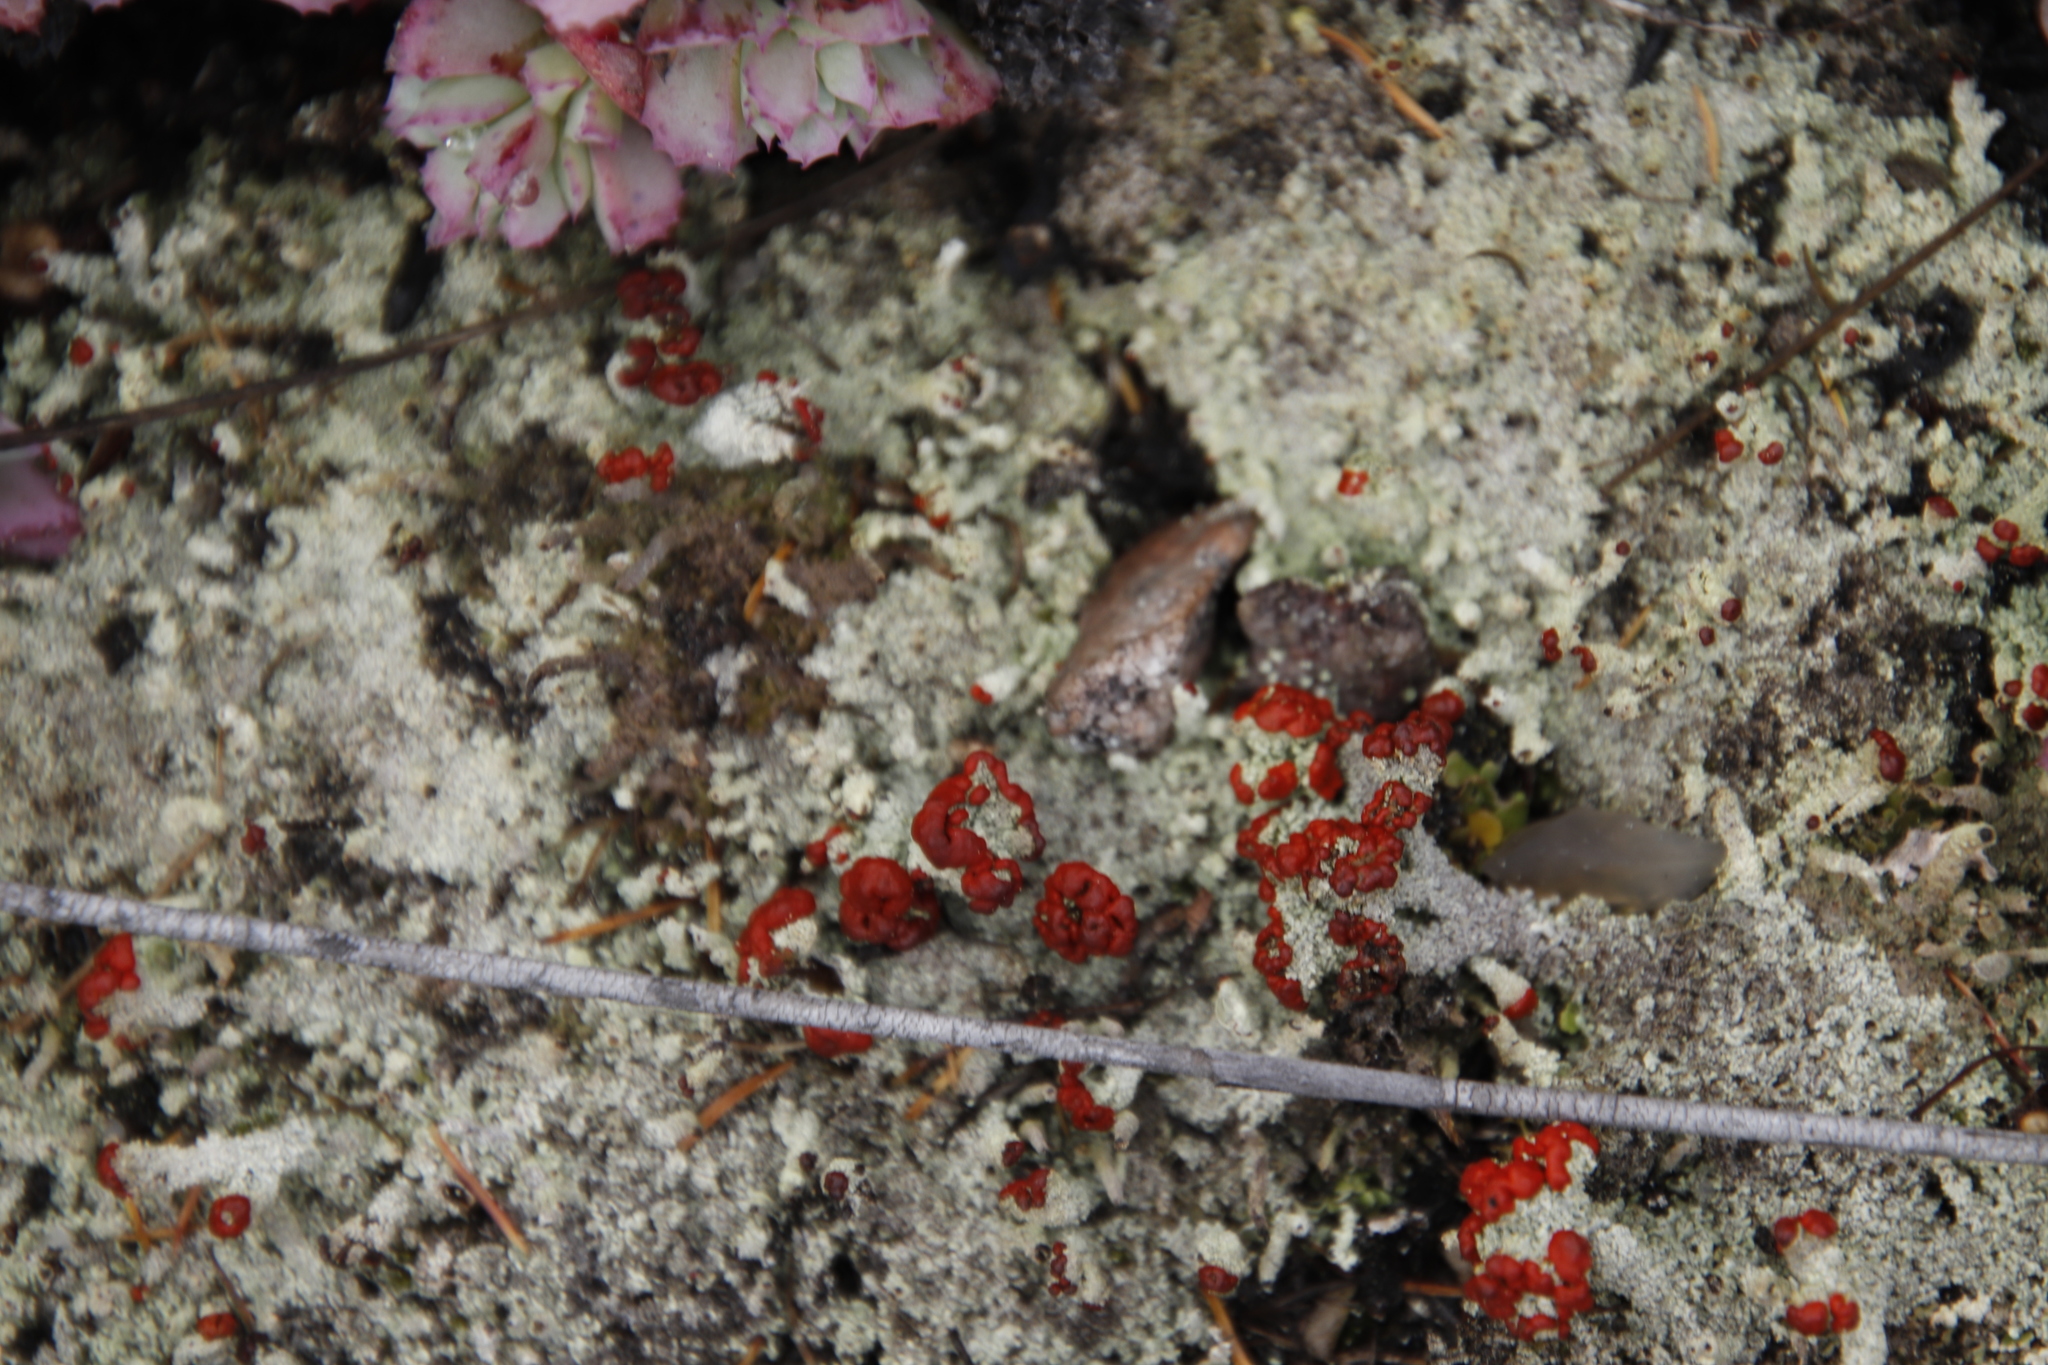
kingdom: Fungi
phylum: Ascomycota
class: Lecanoromycetes
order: Lecanorales
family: Cladoniaceae
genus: Cladonia
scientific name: Cladonia didyma
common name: Southern soldiers
